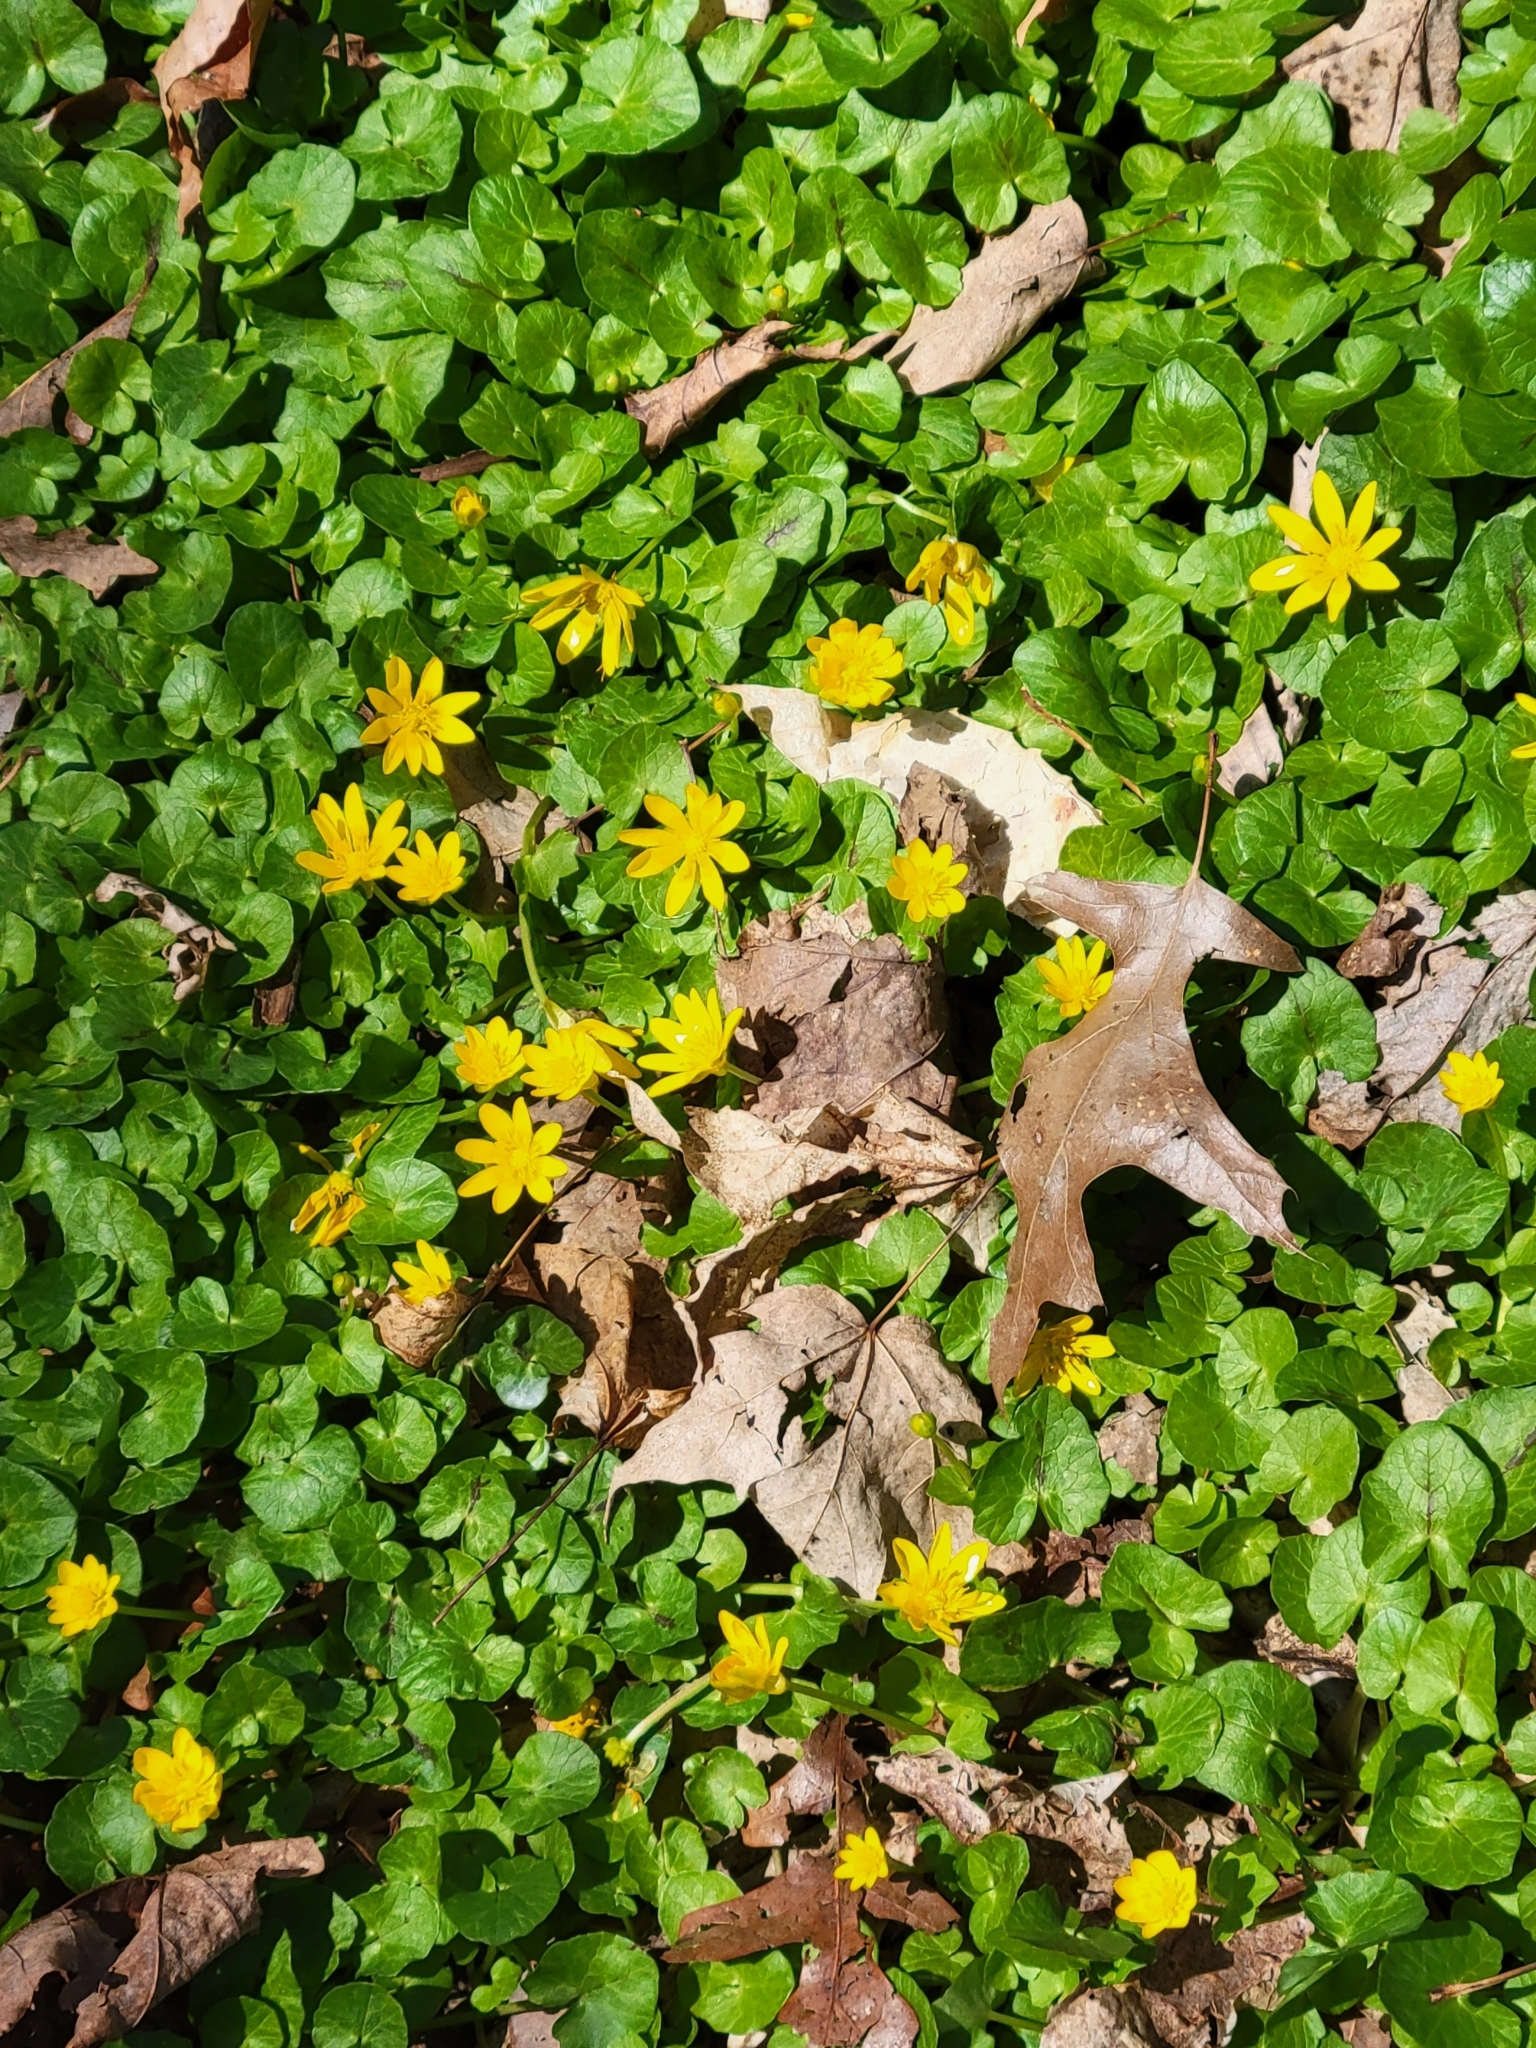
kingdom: Plantae
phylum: Tracheophyta
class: Magnoliopsida
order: Ranunculales
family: Ranunculaceae
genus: Ficaria
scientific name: Ficaria verna
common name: Lesser celandine
